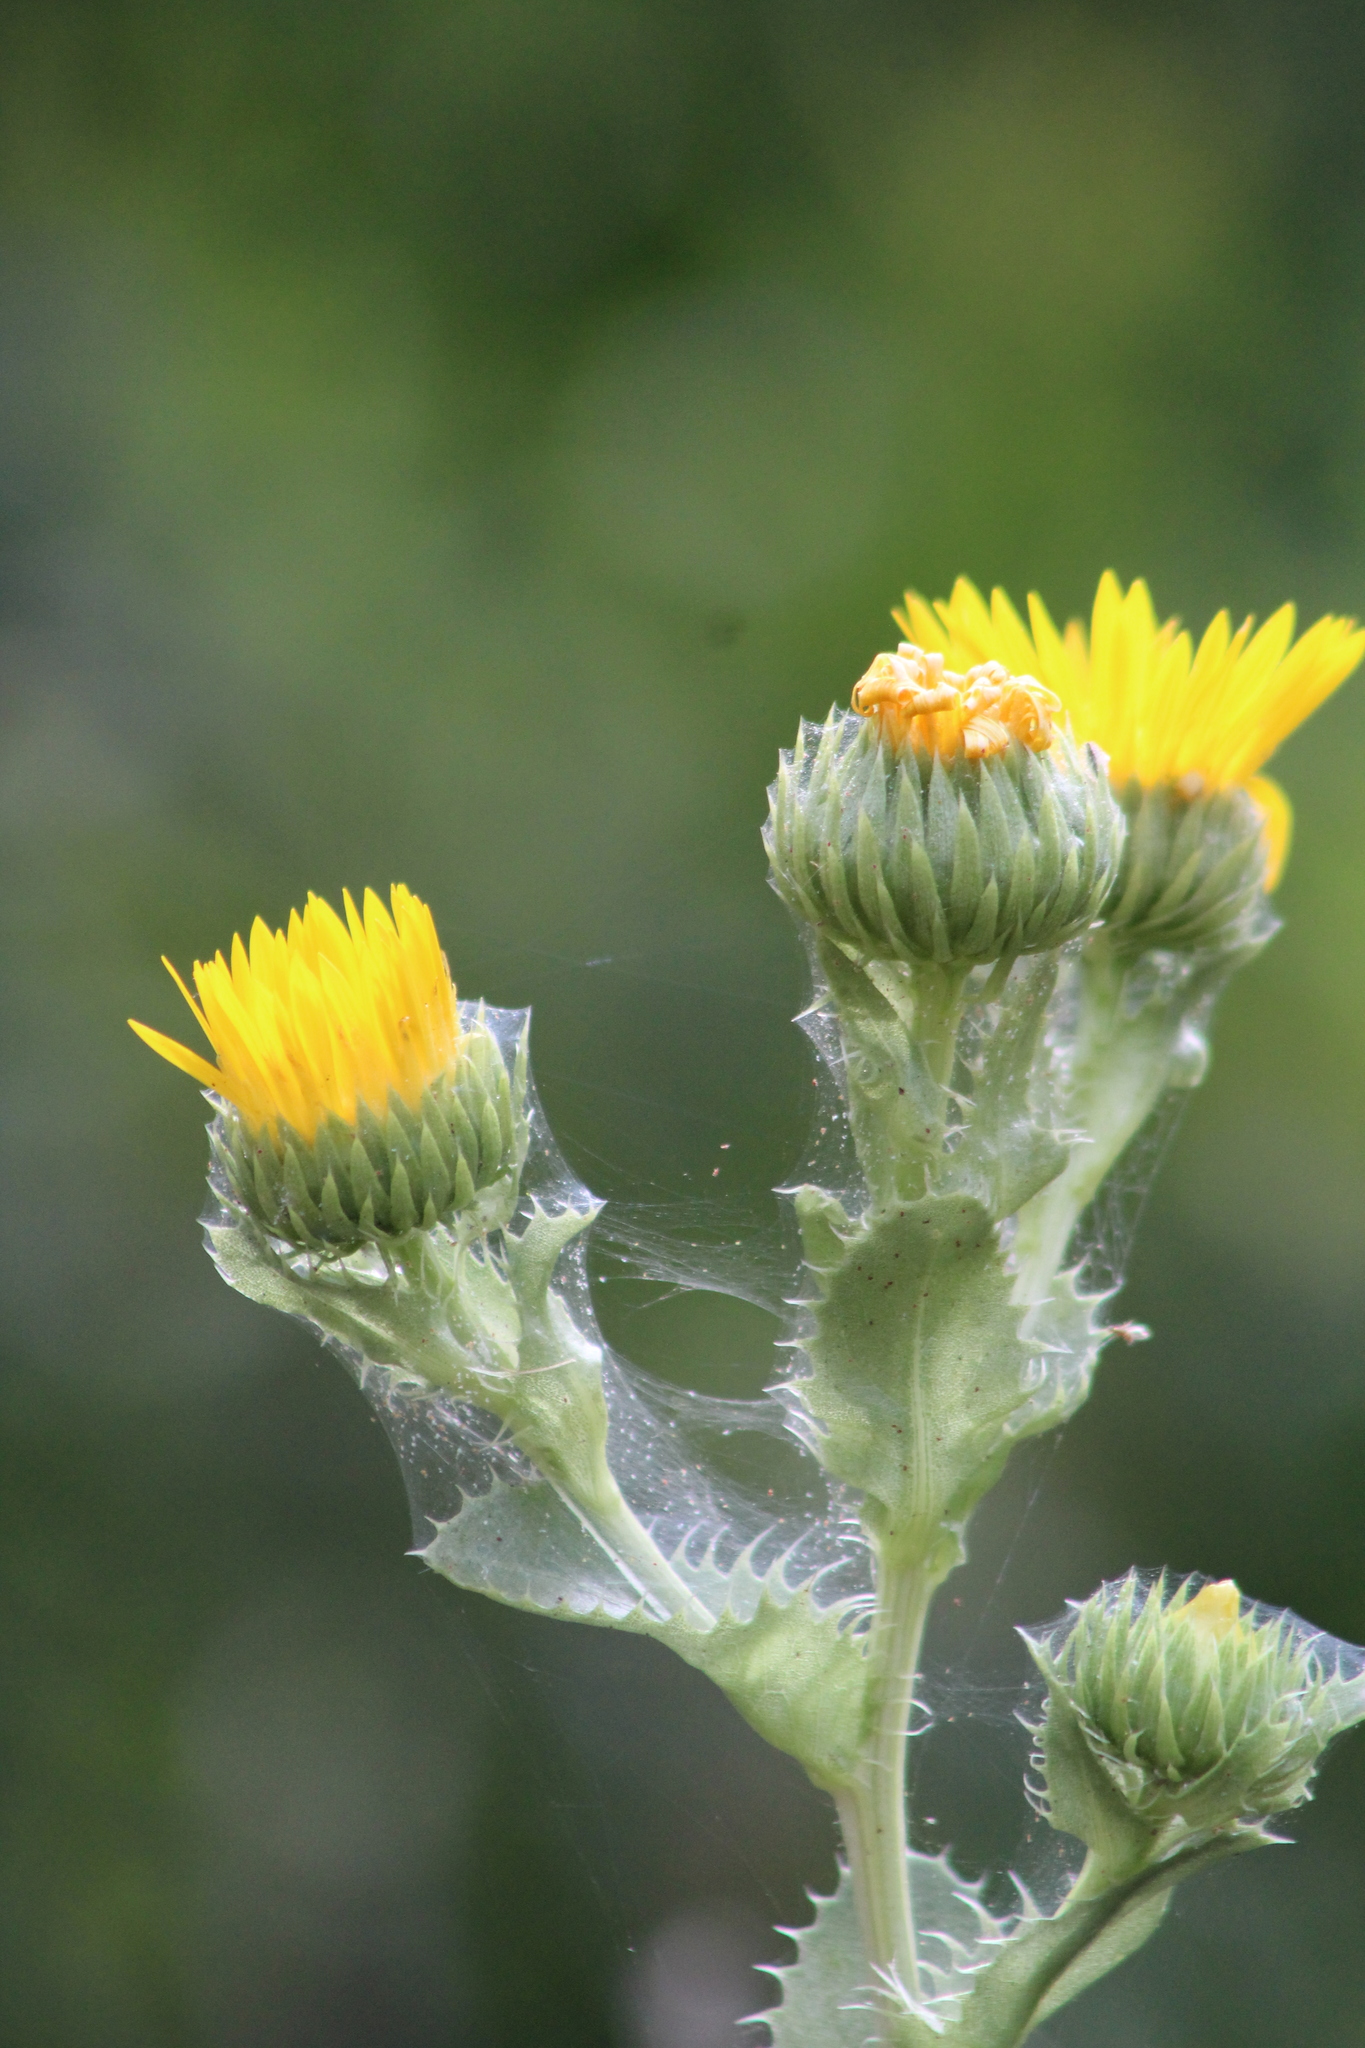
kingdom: Plantae
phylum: Tracheophyta
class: Magnoliopsida
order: Asterales
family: Asteraceae
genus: Grindelia
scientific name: Grindelia ciliata
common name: Goldenweed
